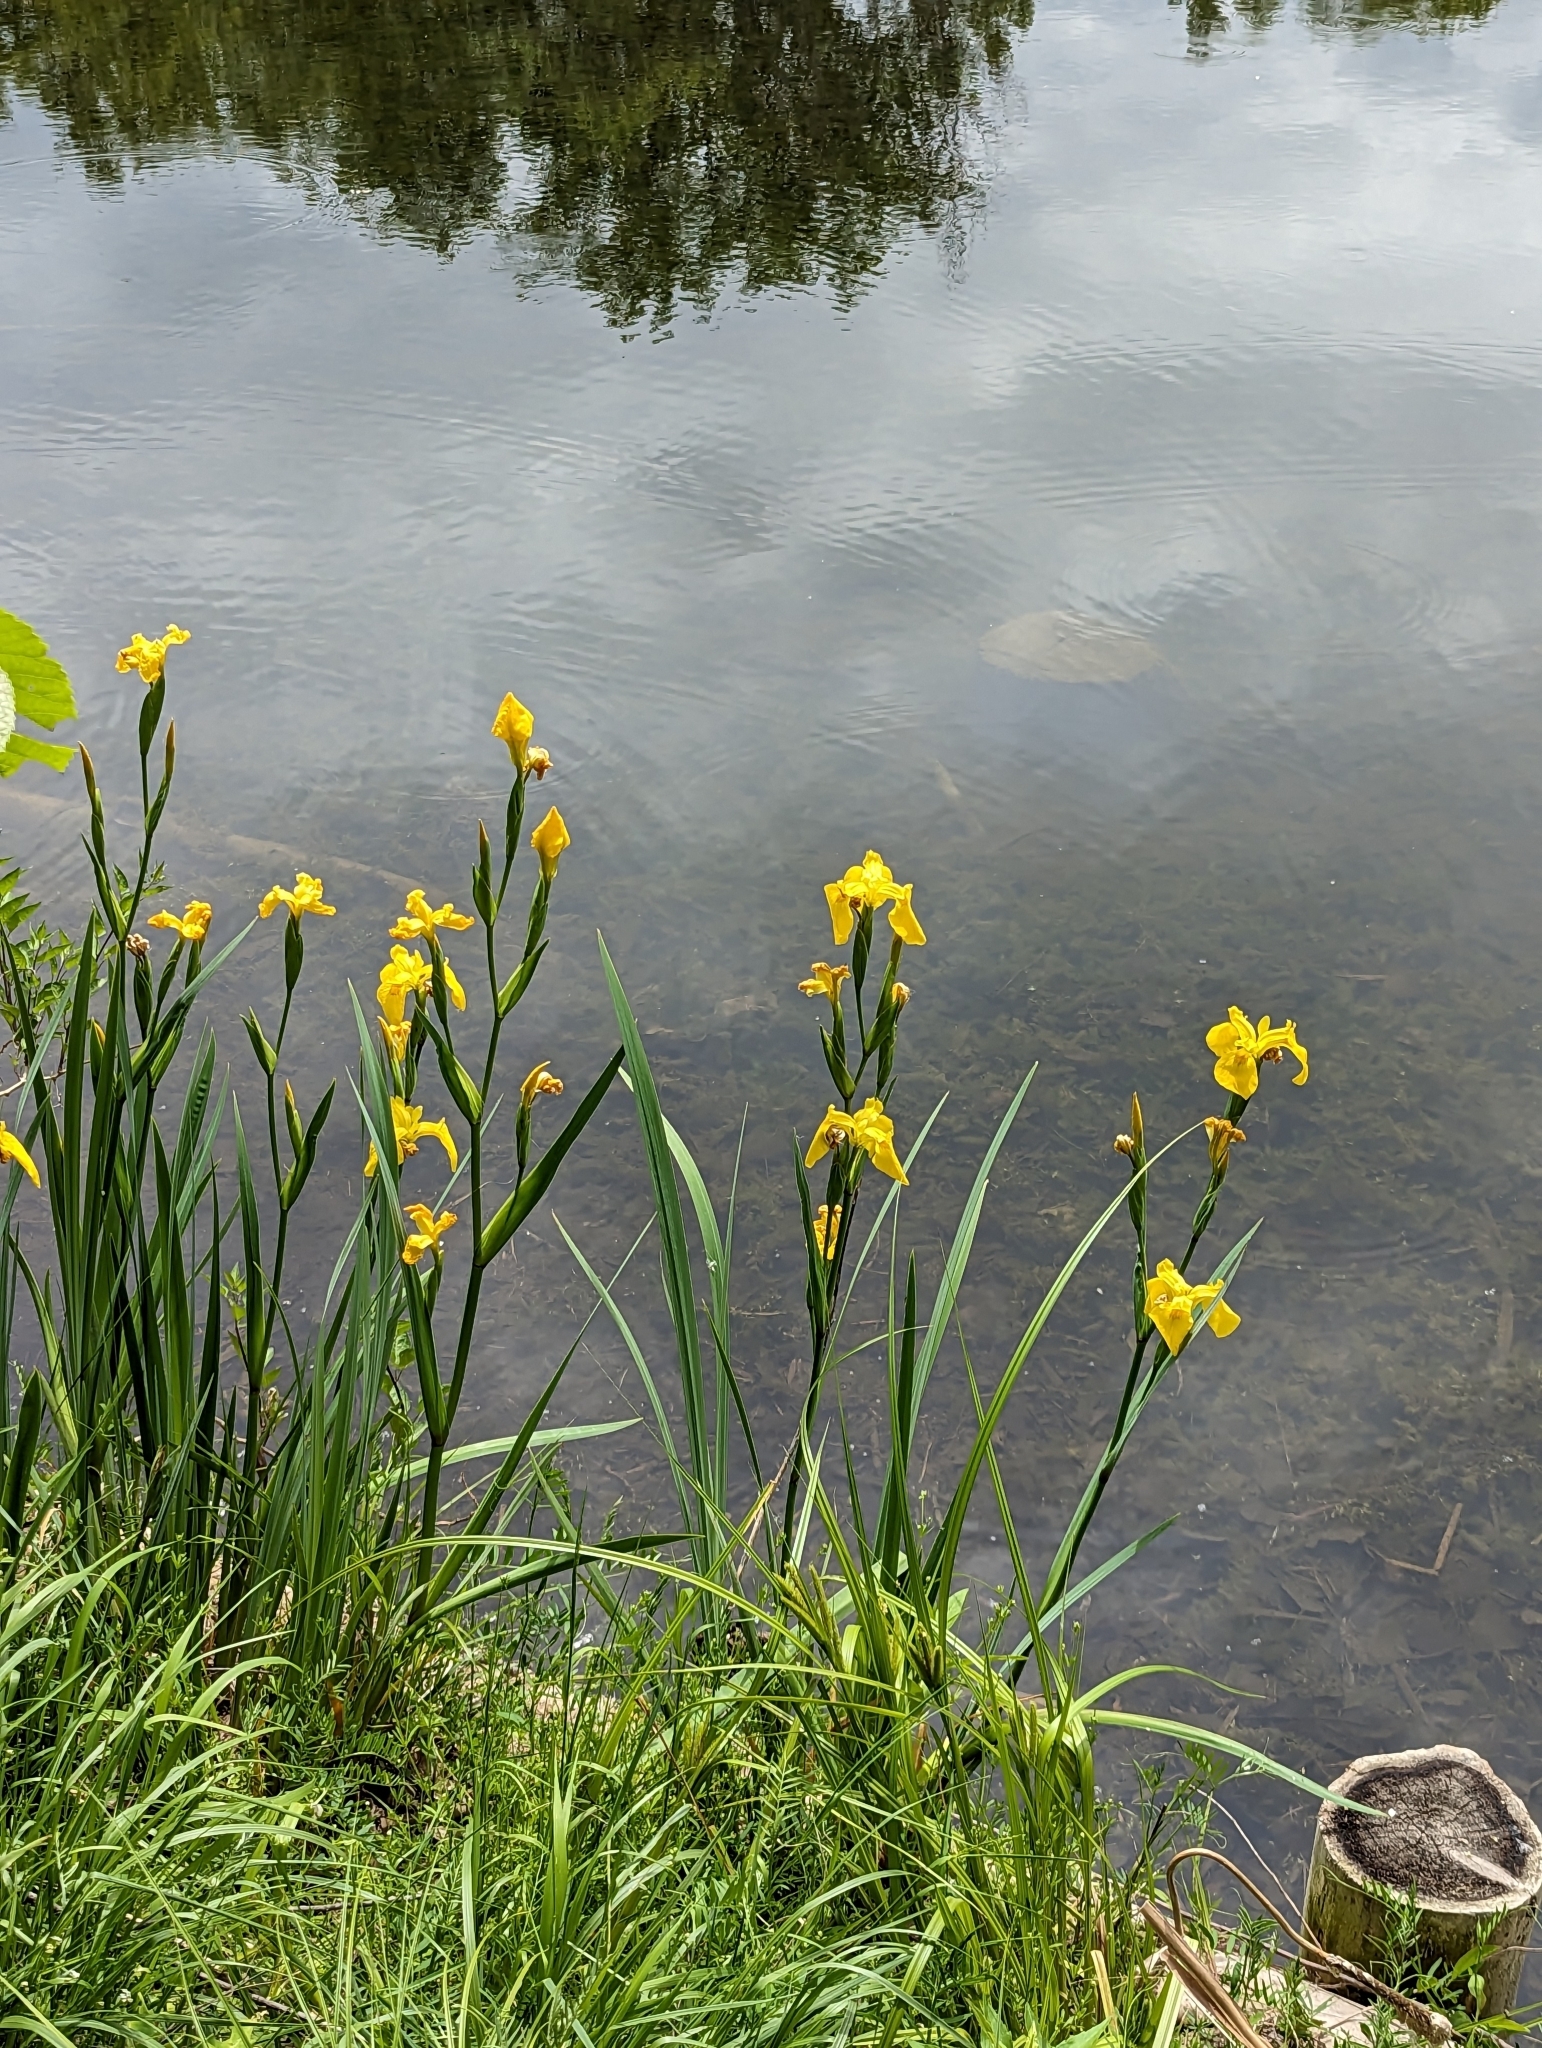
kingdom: Plantae
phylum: Tracheophyta
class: Liliopsida
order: Asparagales
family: Iridaceae
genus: Iris
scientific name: Iris pseudacorus
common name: Yellow flag
